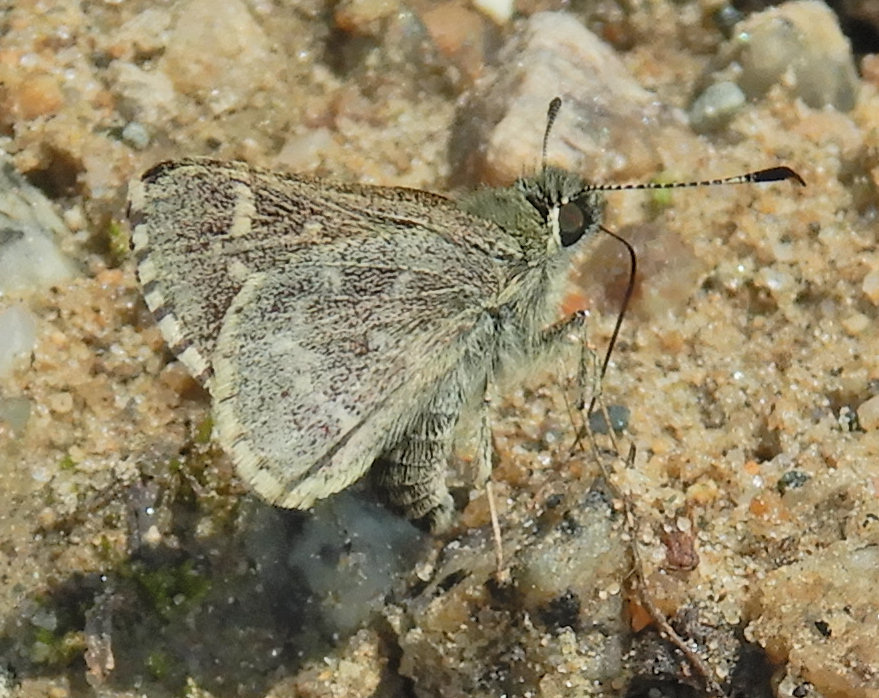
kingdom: Animalia
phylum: Arthropoda
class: Insecta
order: Lepidoptera
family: Hesperiidae
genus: Mastor
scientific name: Mastor hegon
